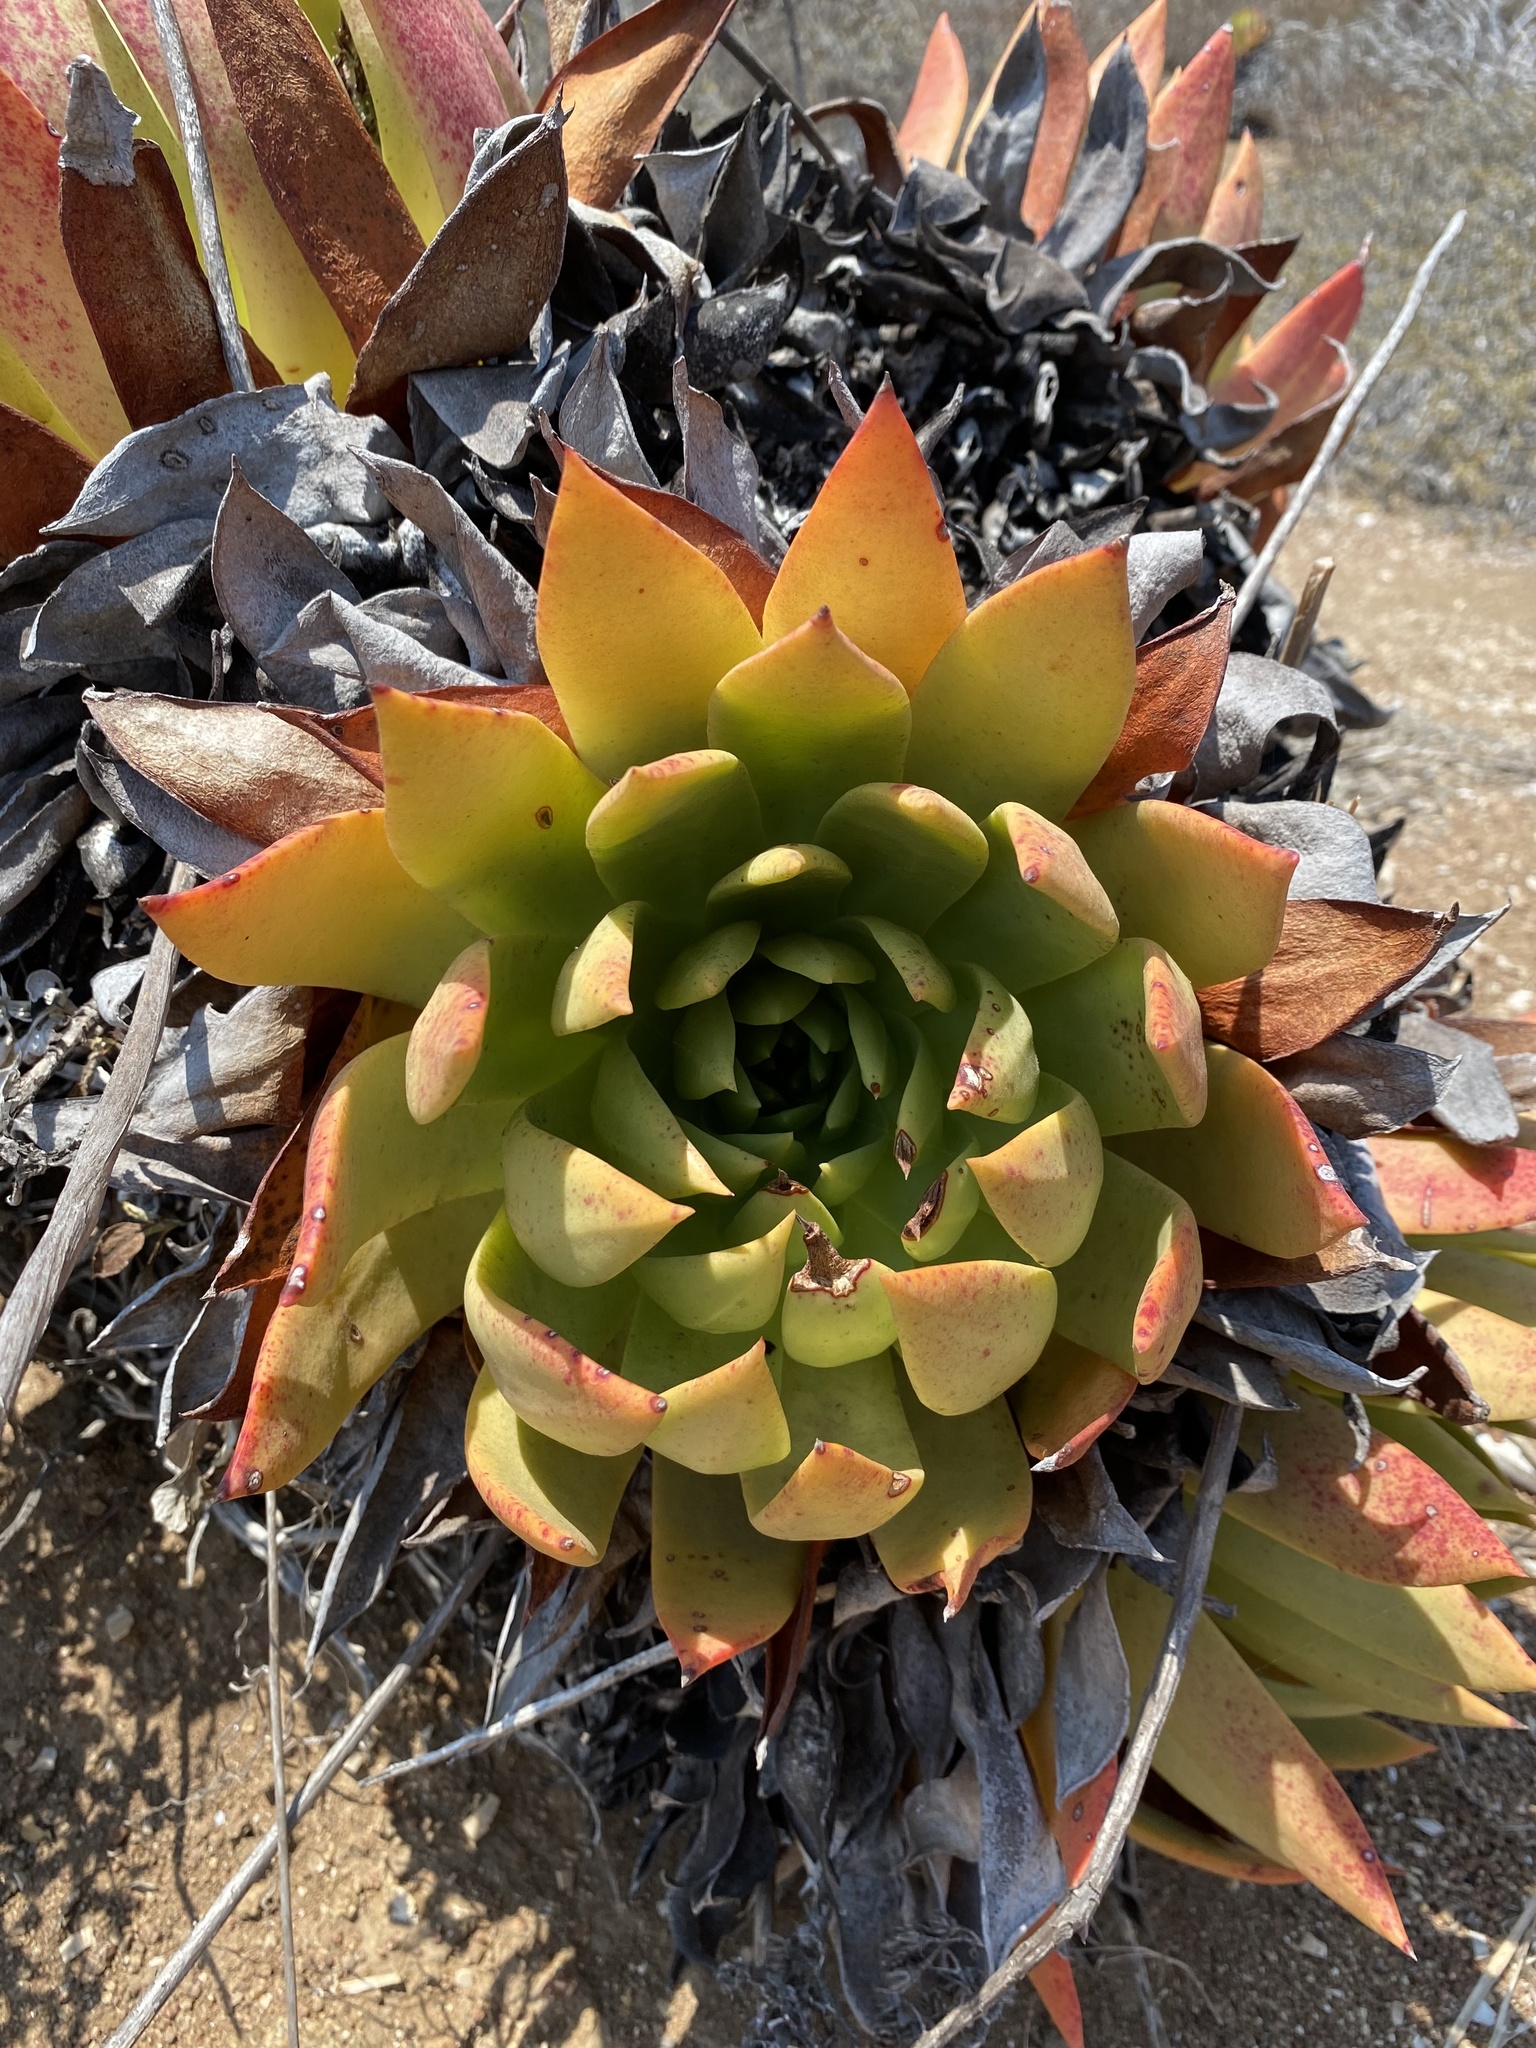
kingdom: Plantae
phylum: Tracheophyta
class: Magnoliopsida
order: Saxifragales
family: Crassulaceae
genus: Dudleya
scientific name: Dudleya brittonii
